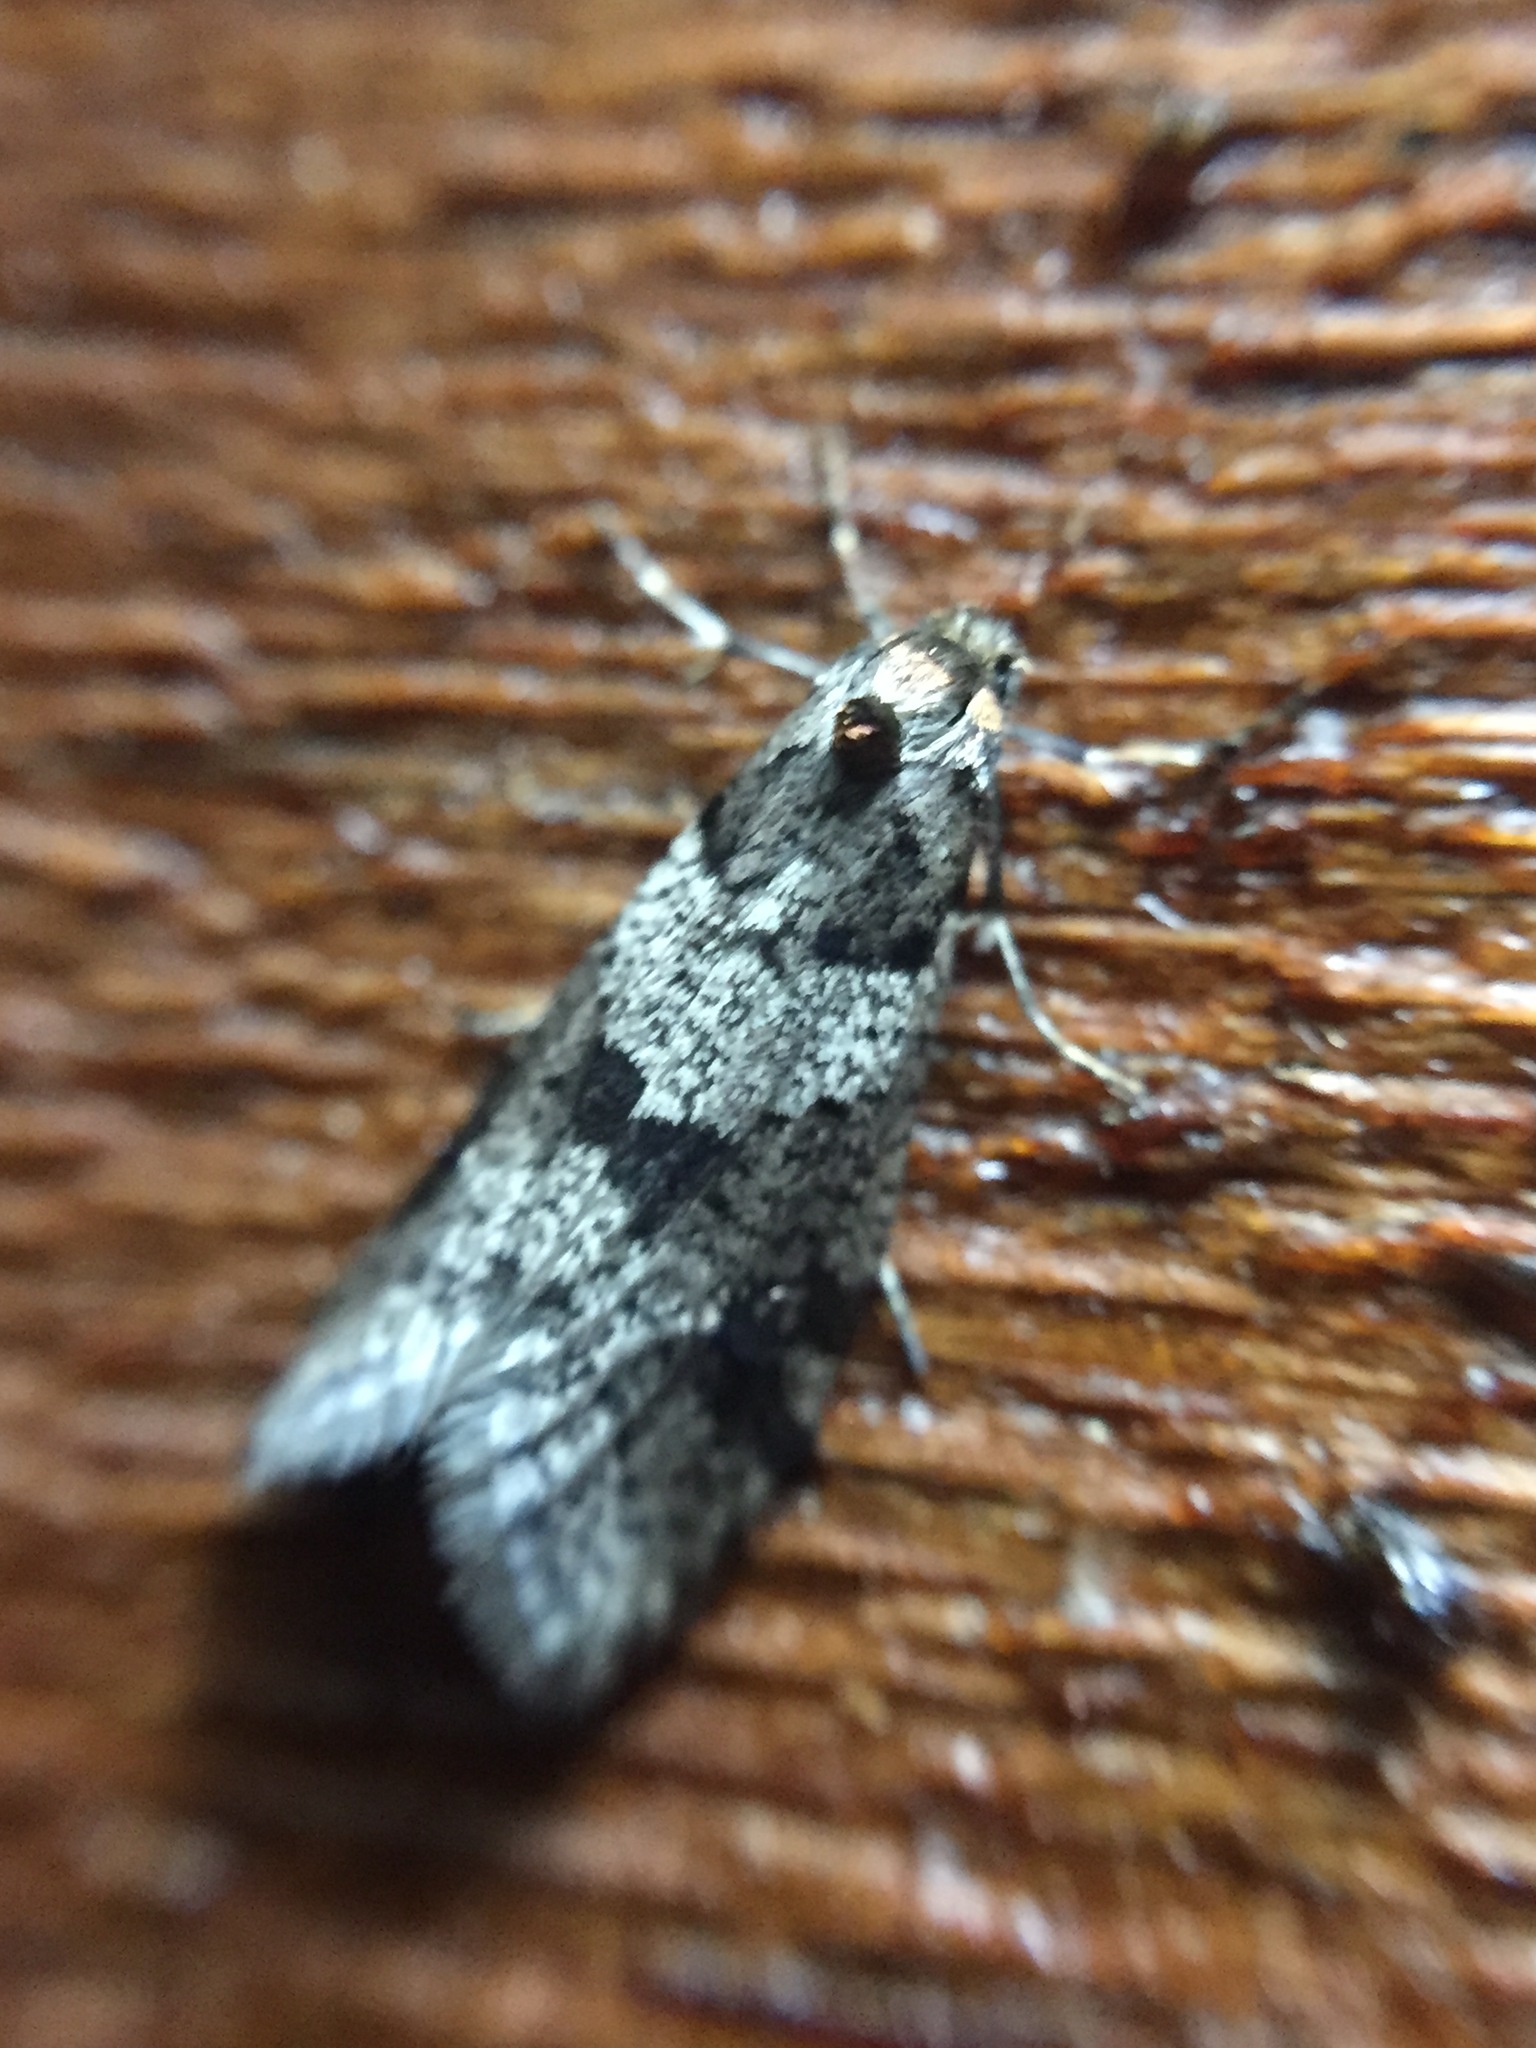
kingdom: Animalia
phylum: Arthropoda
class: Insecta
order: Lepidoptera
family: Psychidae
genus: Lepidoscia
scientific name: Lepidoscia heliochares
